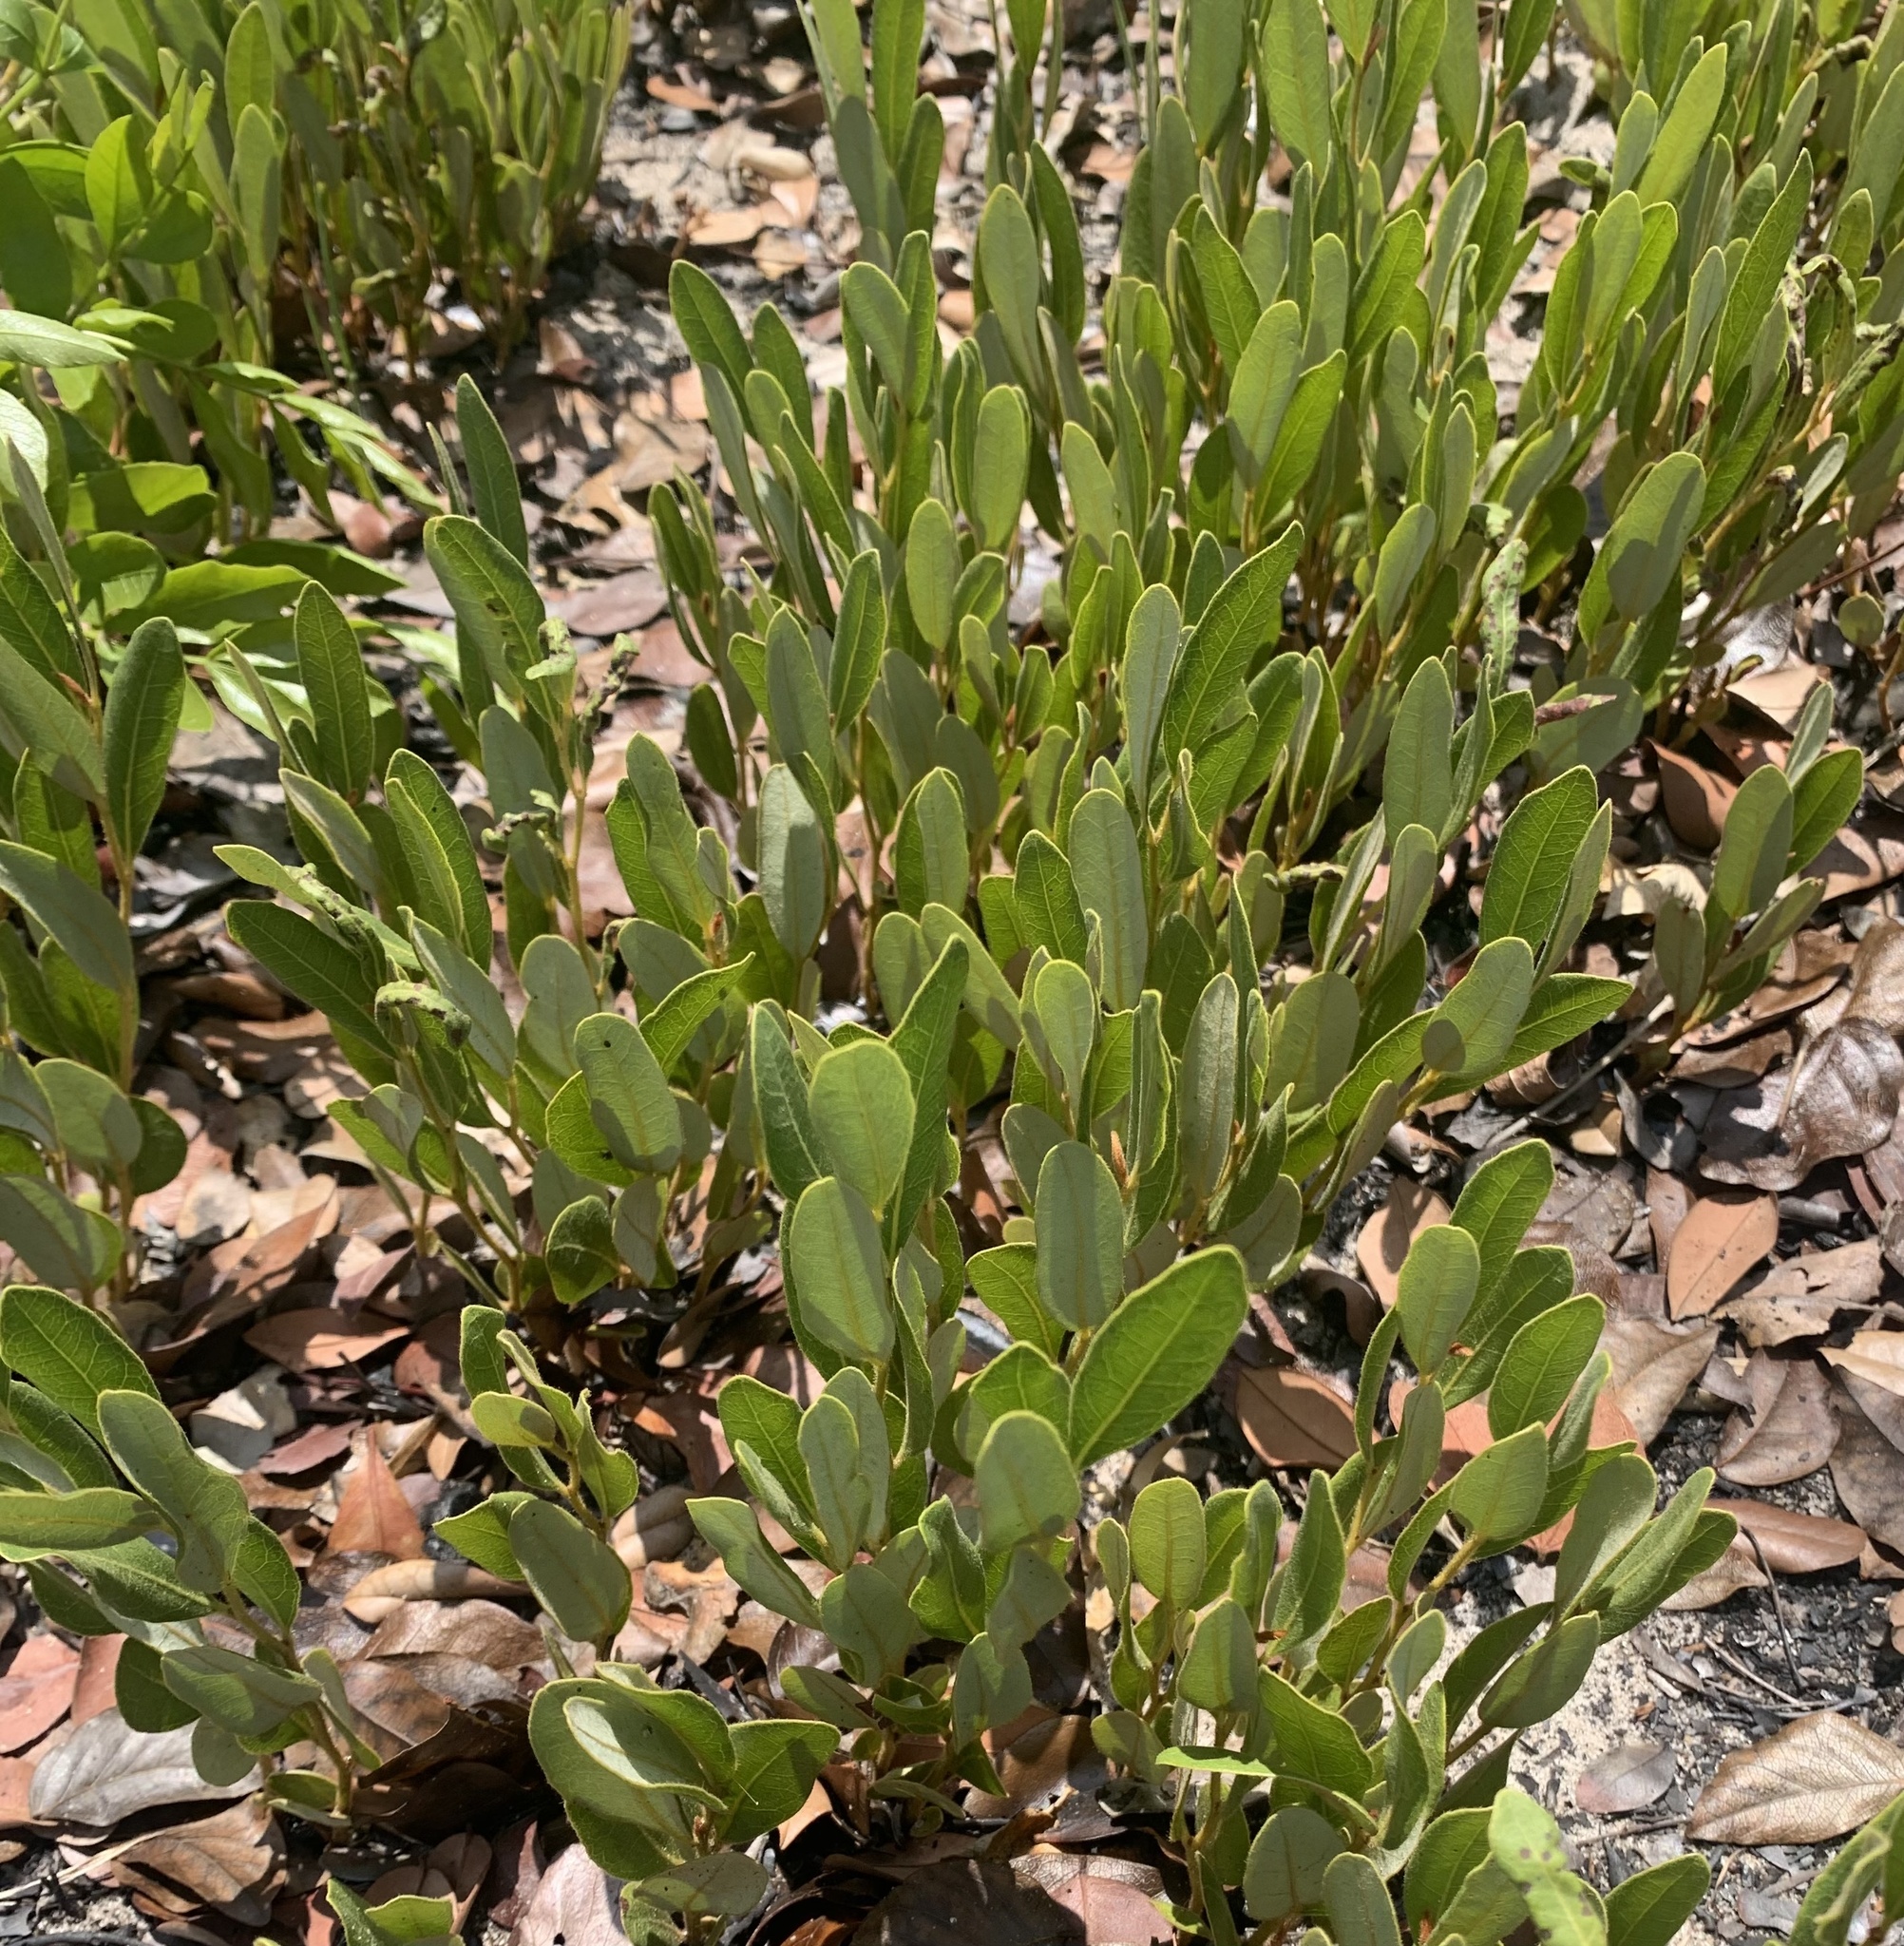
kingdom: Plantae
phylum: Tracheophyta
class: Magnoliopsida
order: Ericales
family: Ebenaceae
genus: Diospyros
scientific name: Diospyros chamaethamnus
